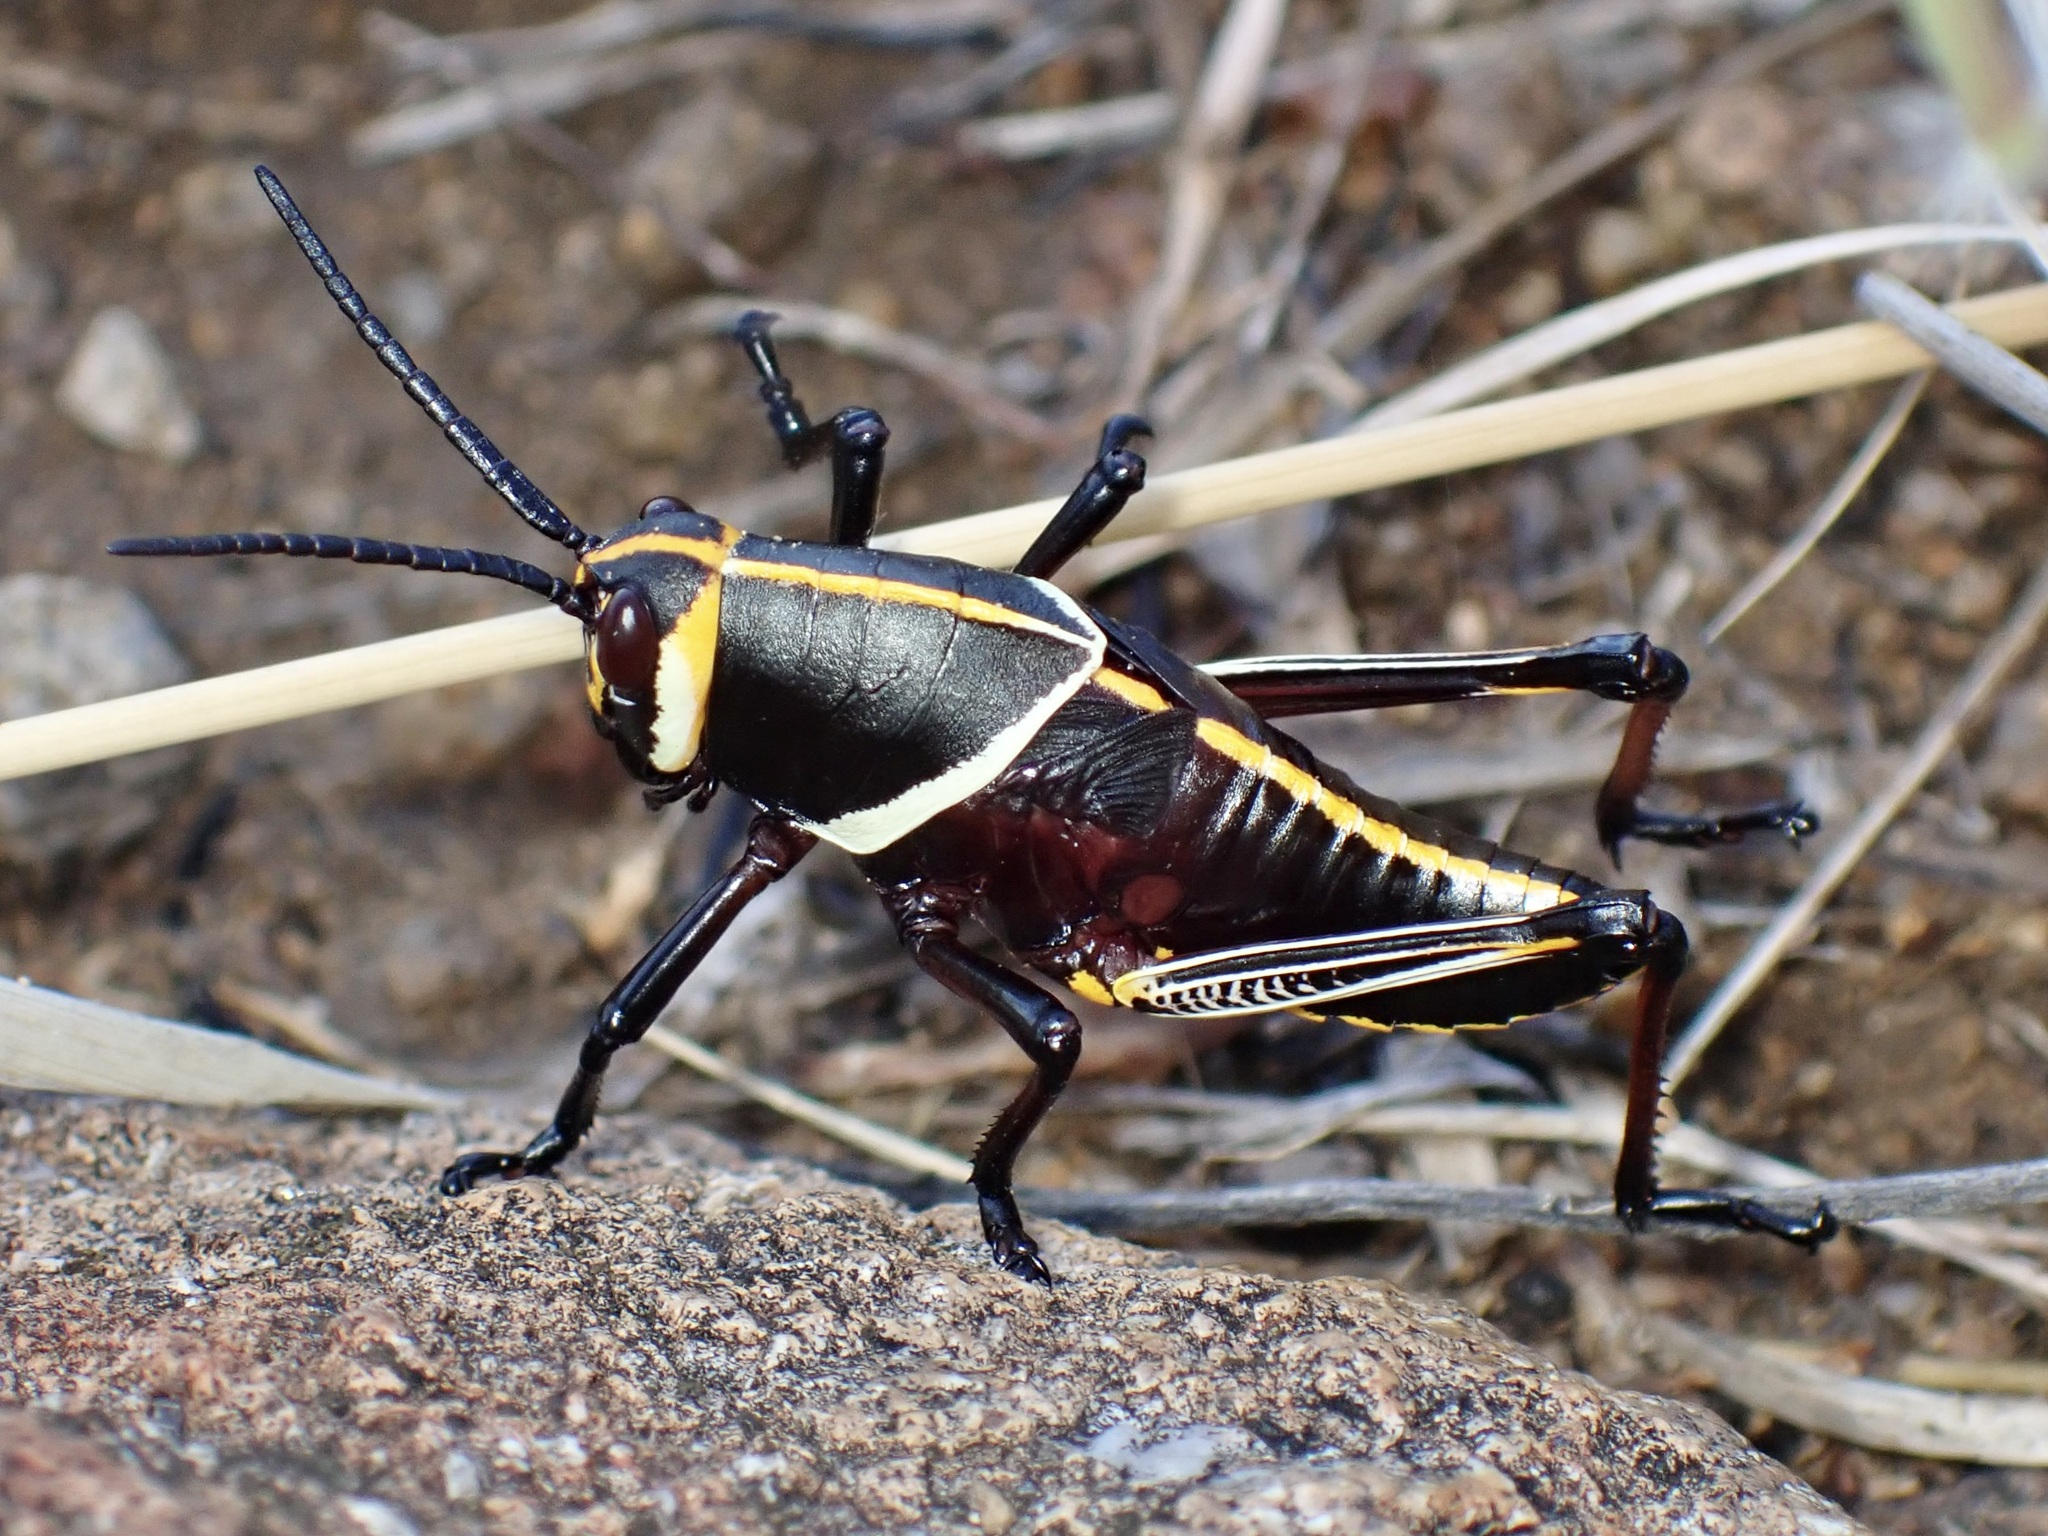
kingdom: Animalia
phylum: Arthropoda
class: Insecta
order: Orthoptera
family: Romaleidae
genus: Romalea
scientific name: Romalea
